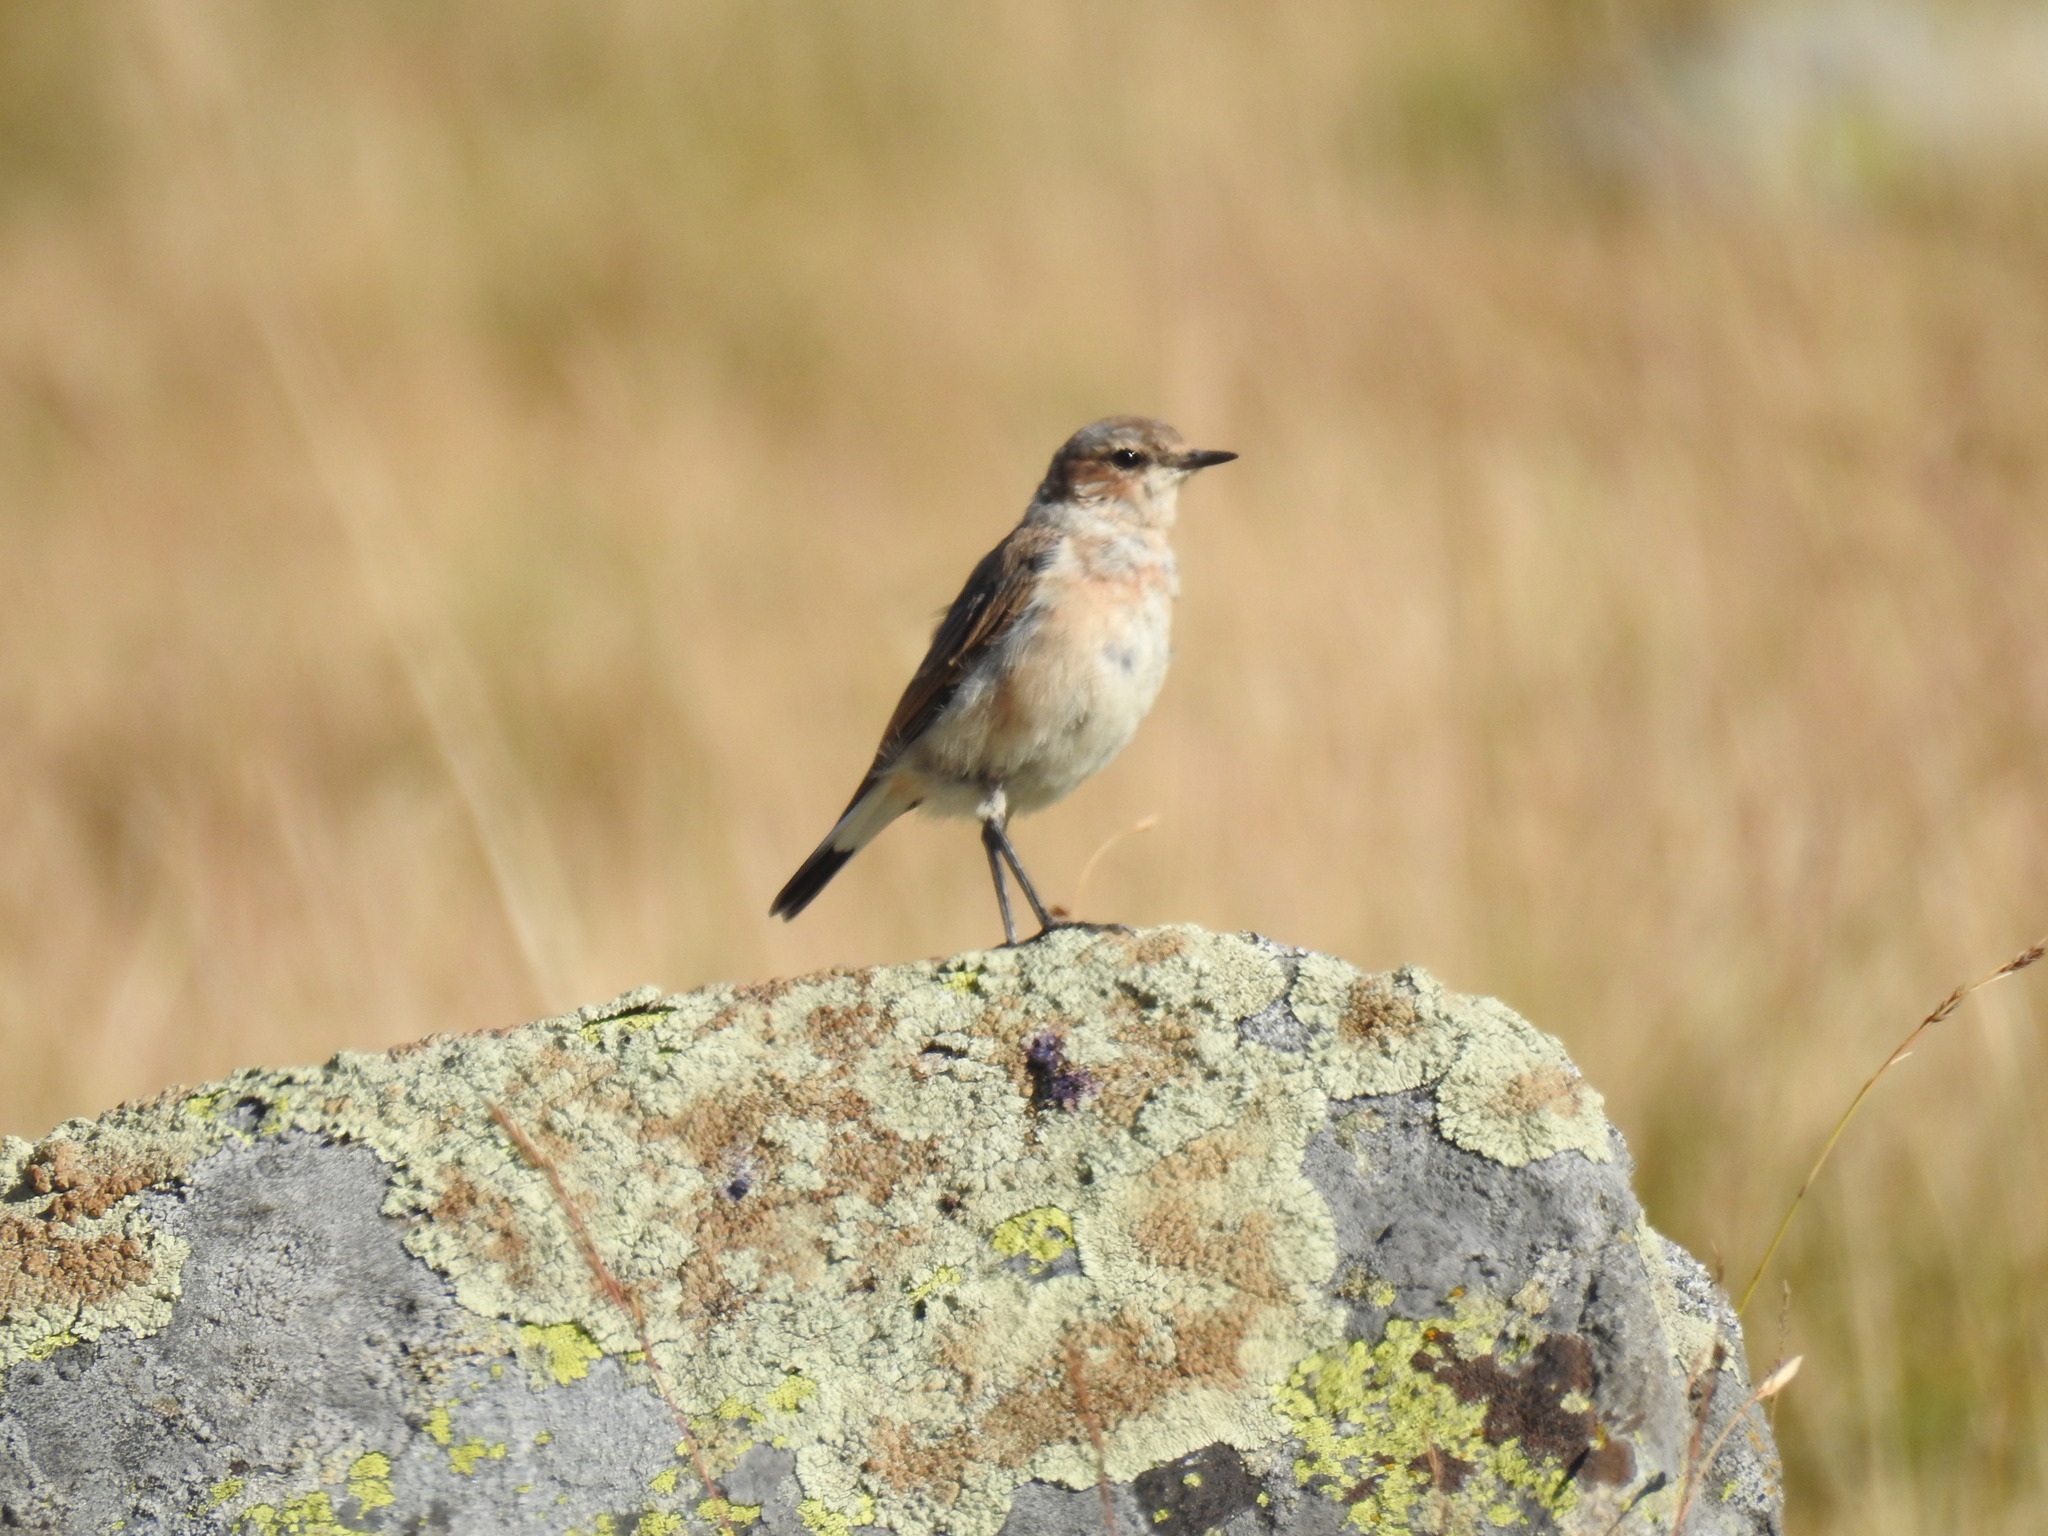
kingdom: Animalia
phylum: Chordata
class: Aves
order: Passeriformes
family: Muscicapidae
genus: Oenanthe
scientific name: Oenanthe oenanthe
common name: Northern wheatear
